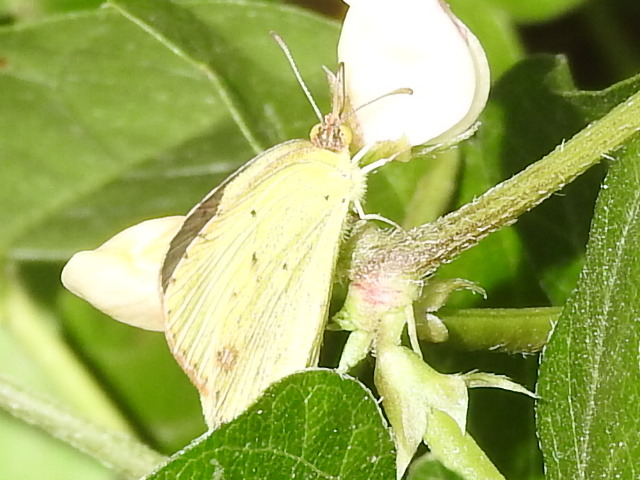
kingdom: Animalia
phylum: Arthropoda
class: Insecta
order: Lepidoptera
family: Pieridae
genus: Pyrisitia
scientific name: Pyrisitia lisa
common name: Little yellow
